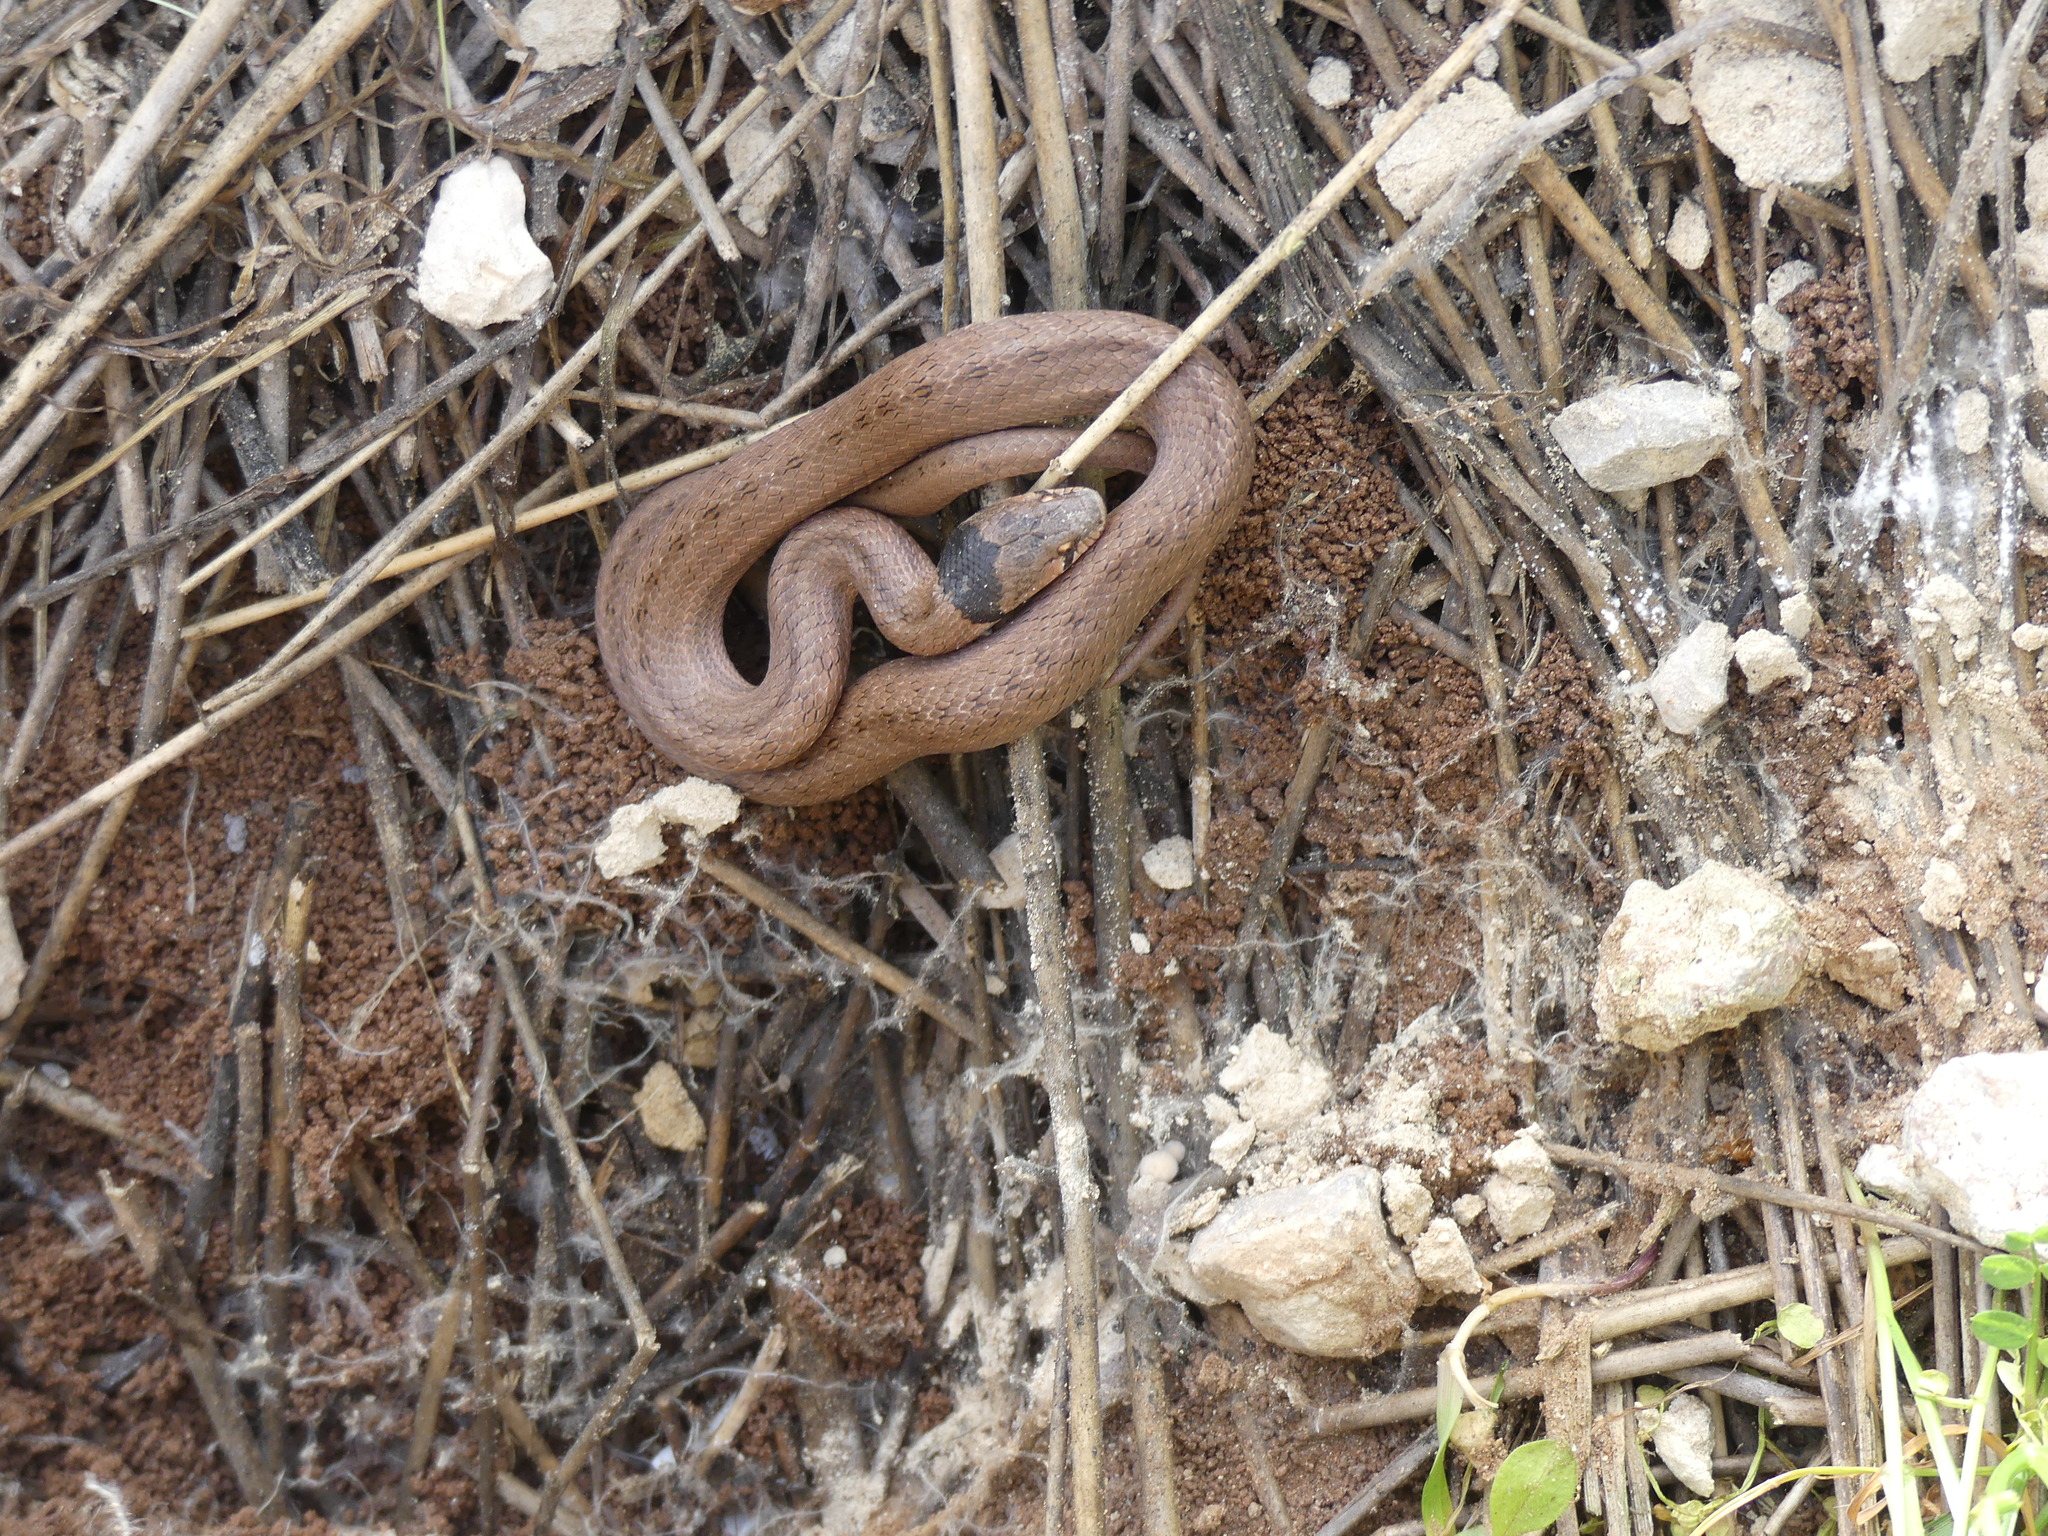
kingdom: Animalia
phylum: Chordata
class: Squamata
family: Colubridae
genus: Macroprotodon
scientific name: Macroprotodon brevis
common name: Iberian false smooth snake
